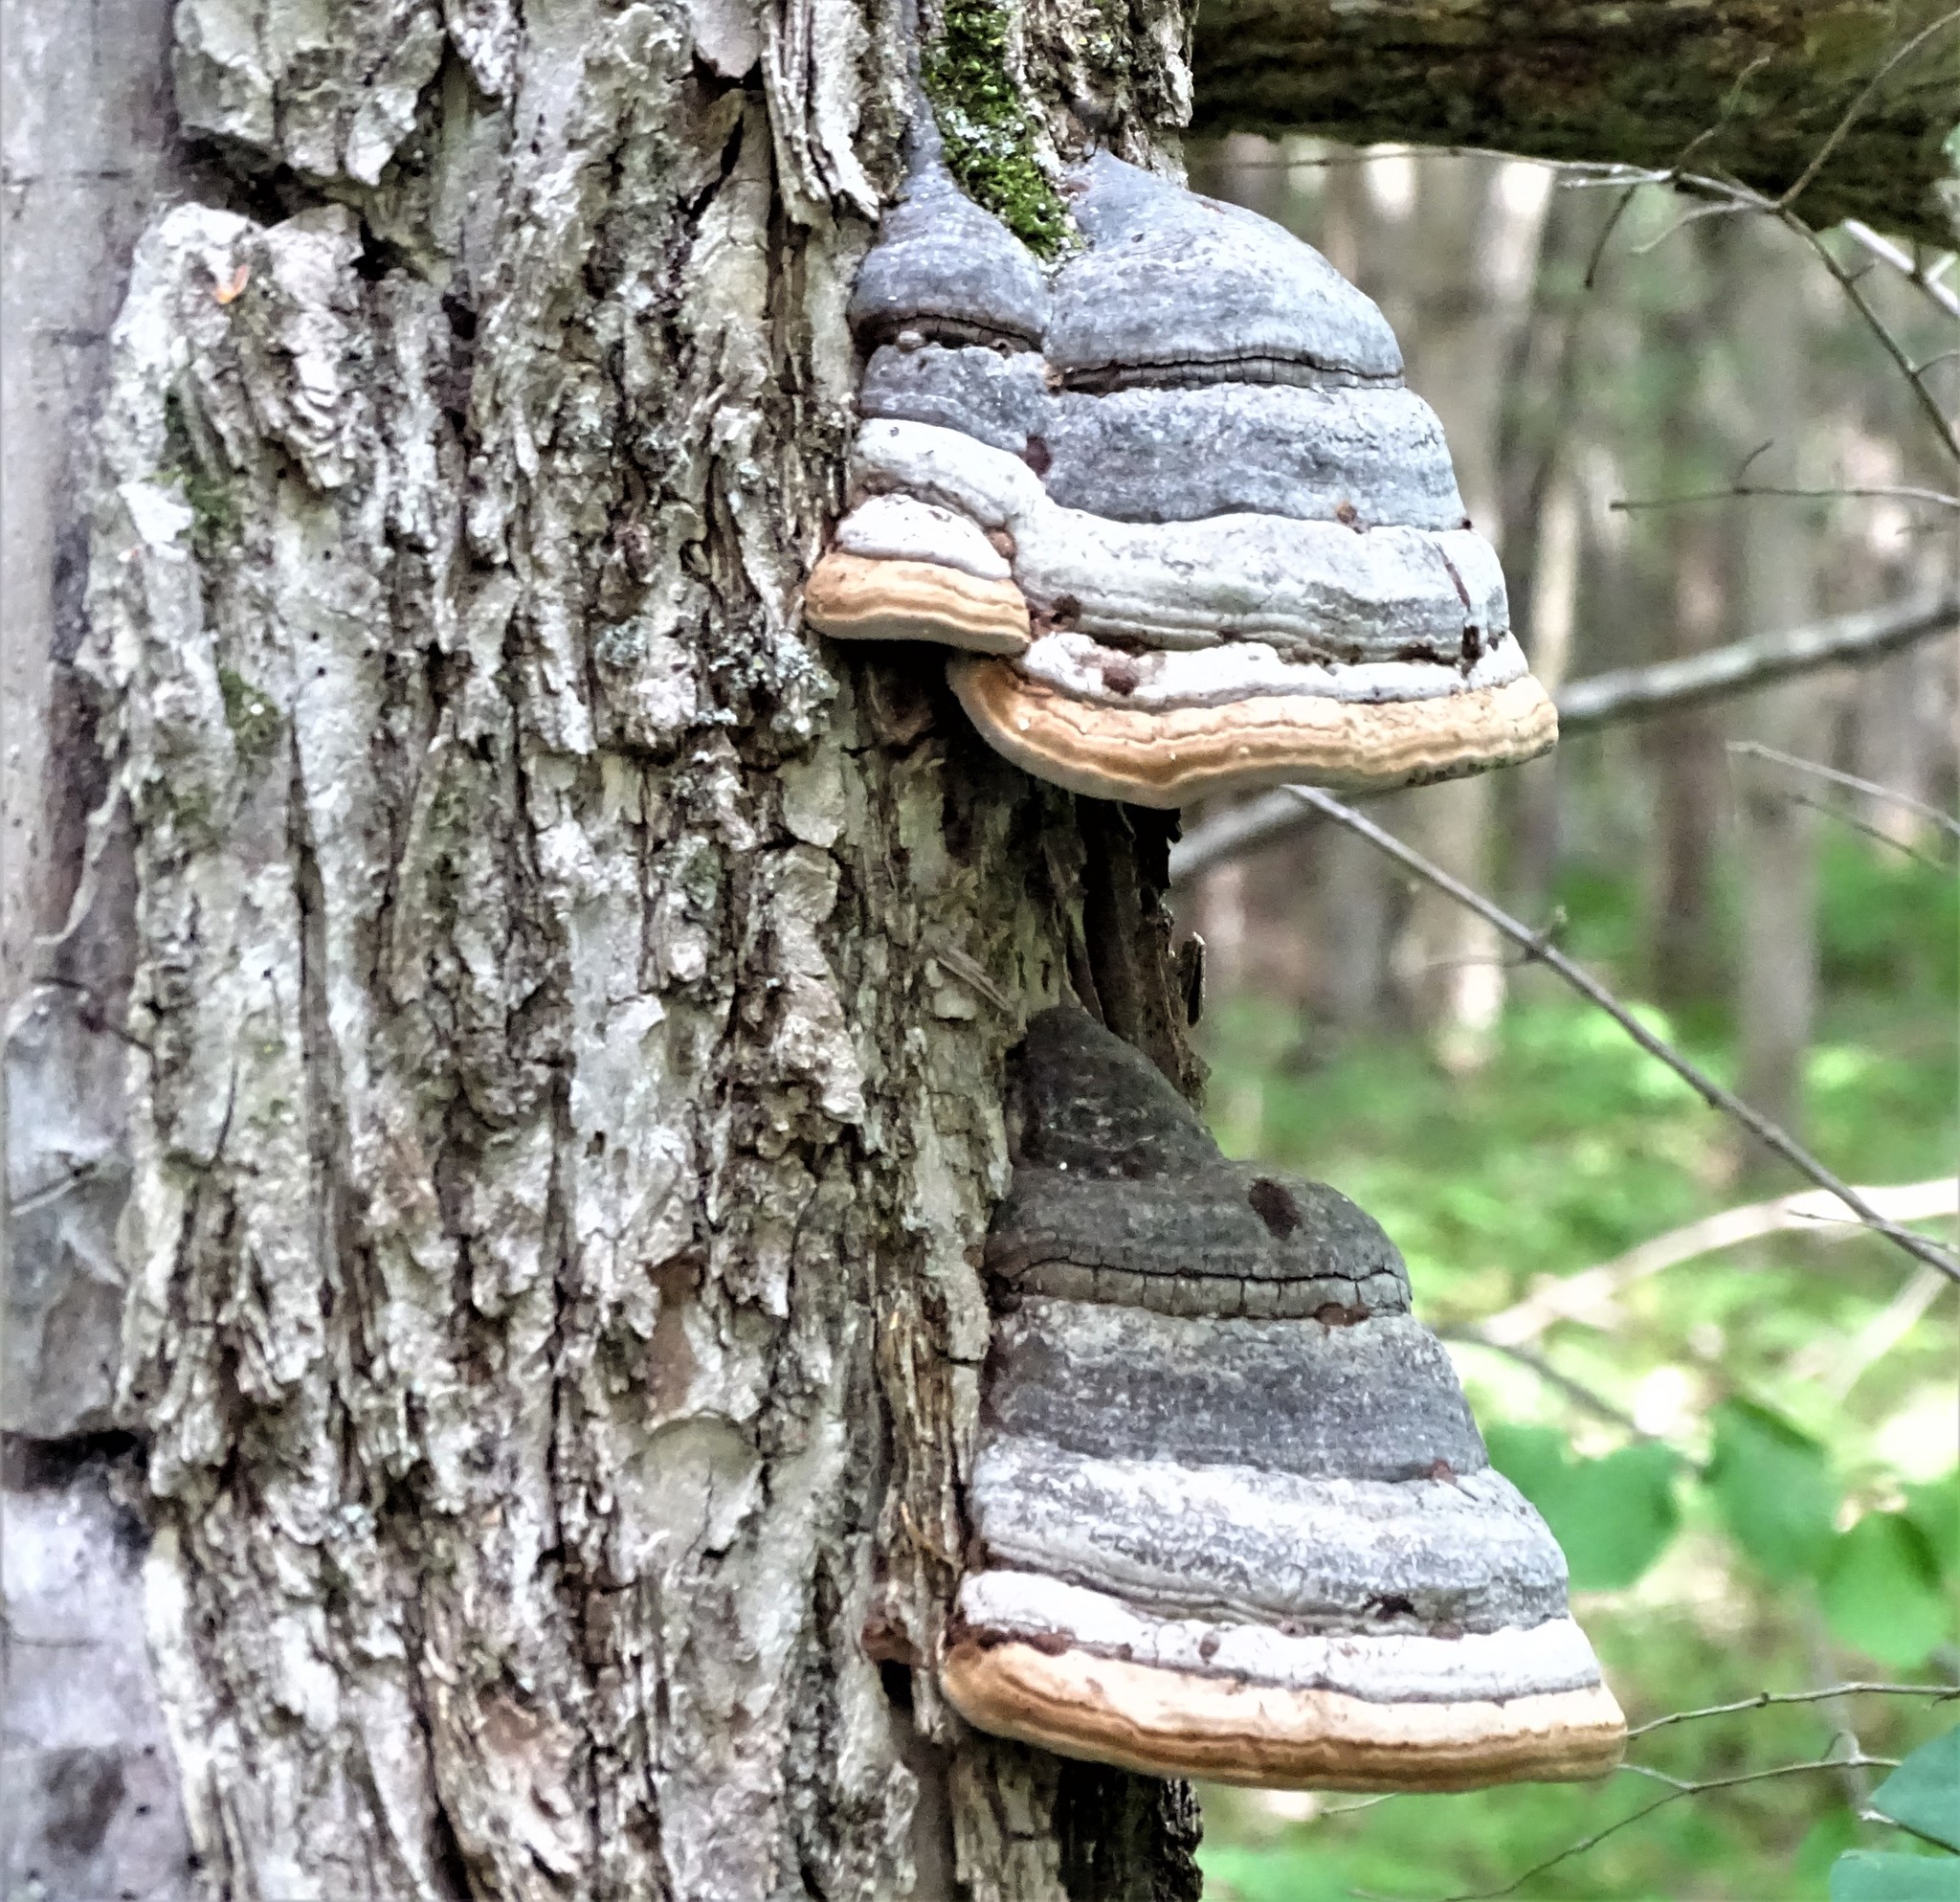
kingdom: Fungi
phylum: Basidiomycota
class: Agaricomycetes
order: Polyporales
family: Polyporaceae
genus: Fomes
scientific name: Fomes fomentarius
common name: Hoof fungus
